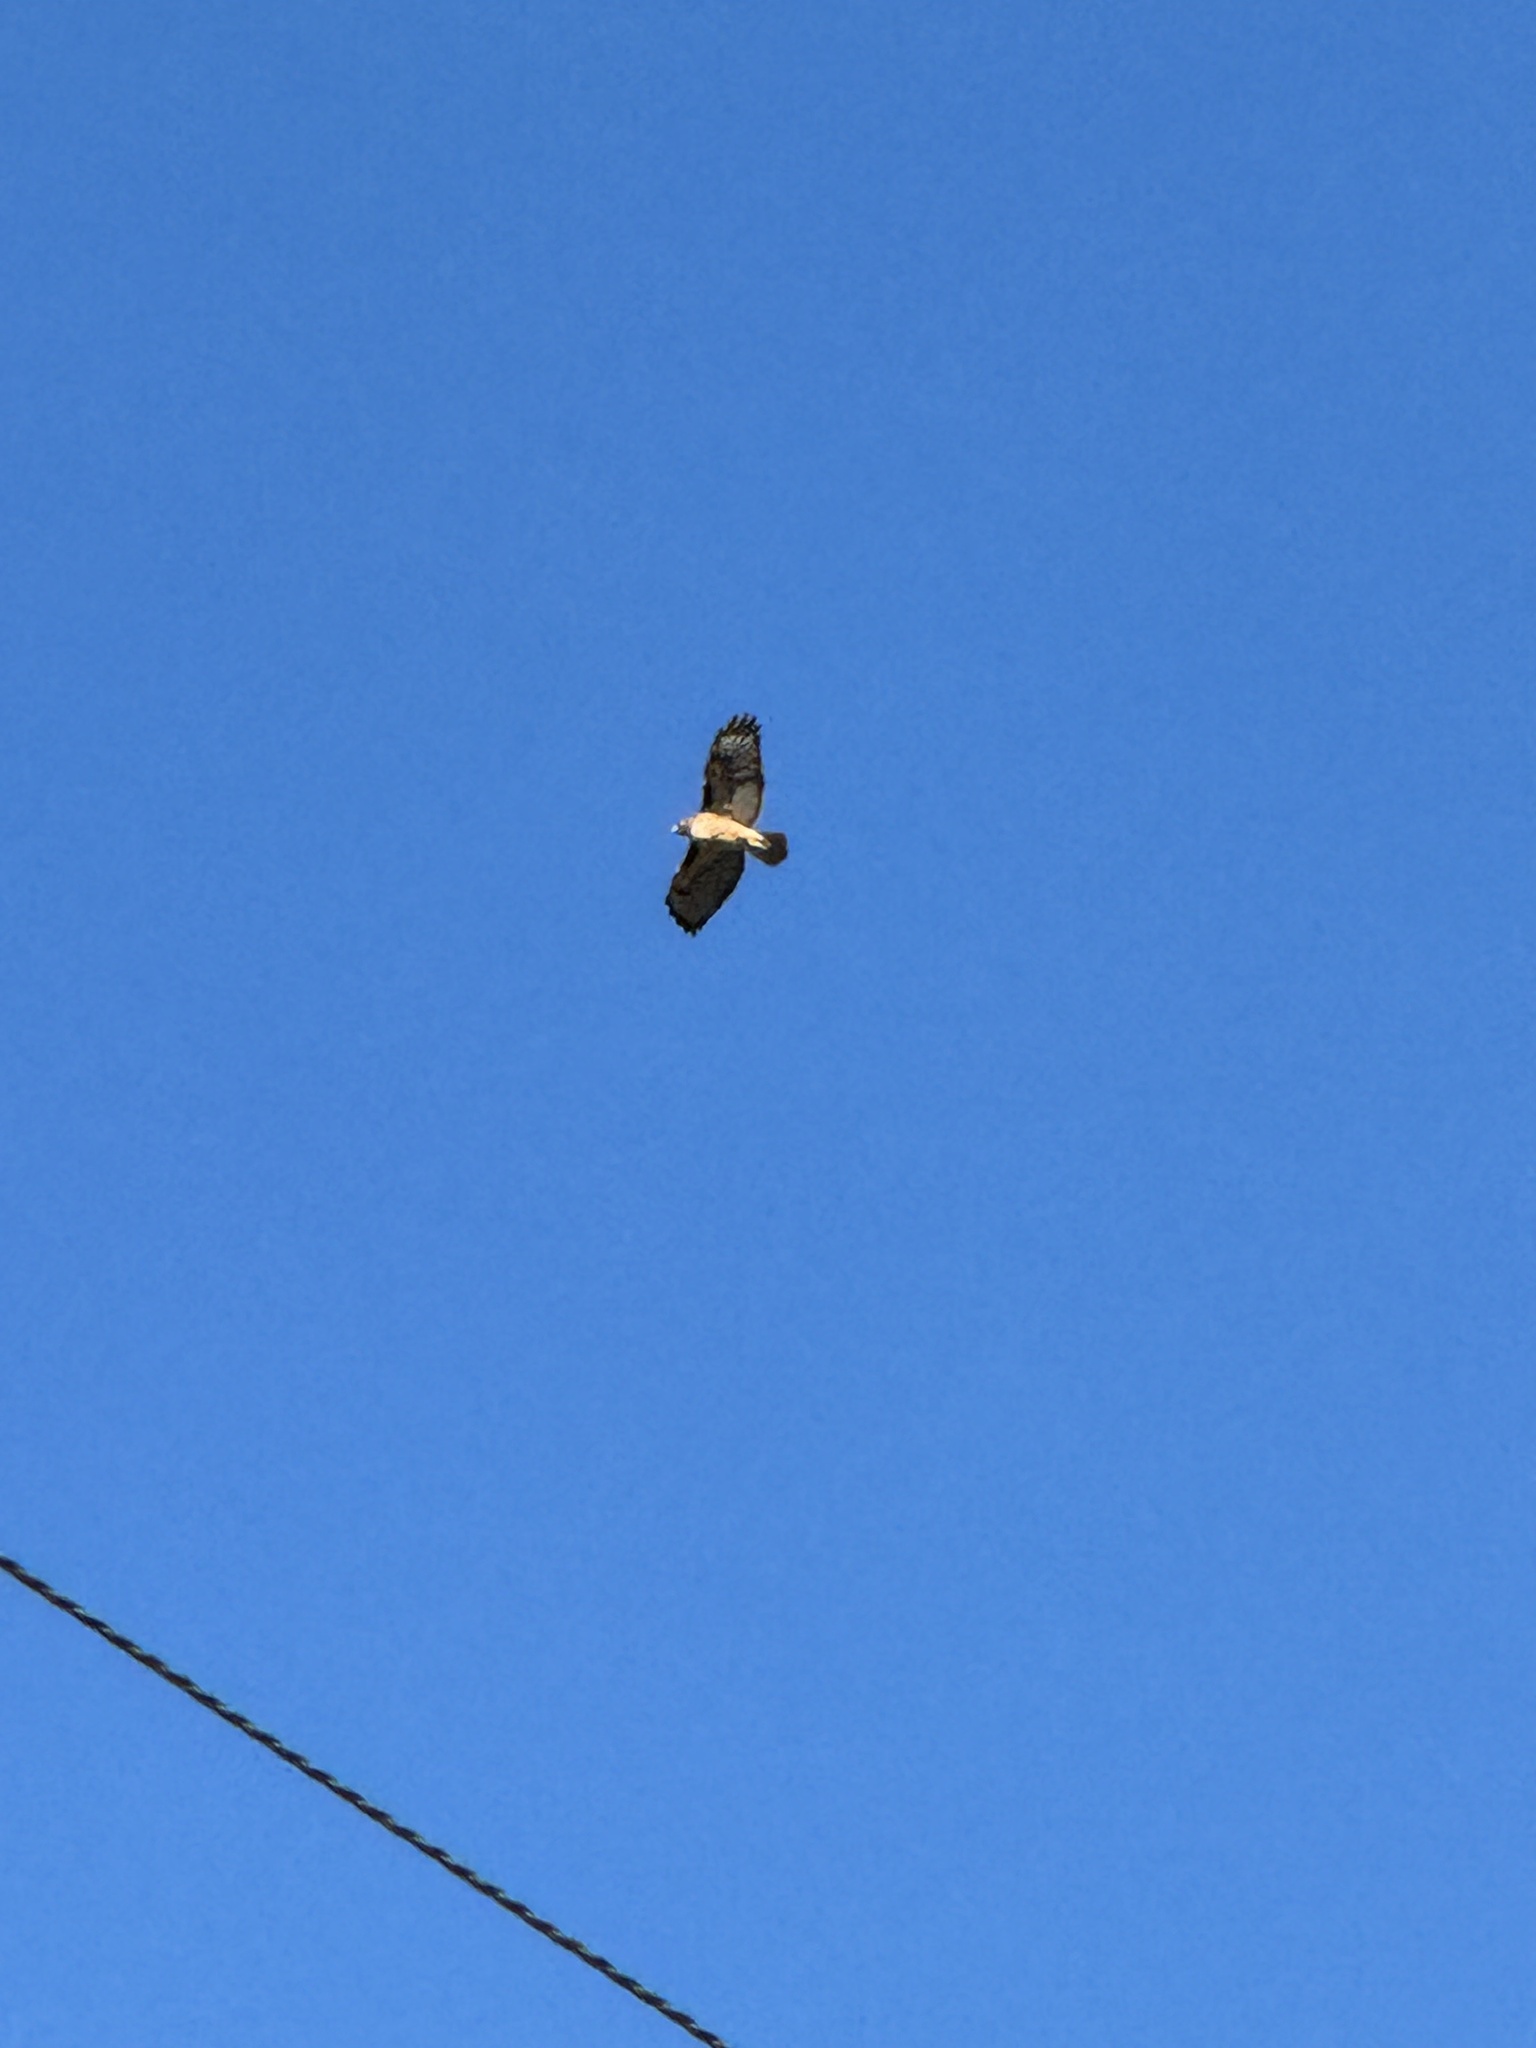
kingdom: Animalia
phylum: Chordata
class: Aves
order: Accipitriformes
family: Accipitridae
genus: Buteo
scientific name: Buteo jamaicensis
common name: Red-tailed hawk
